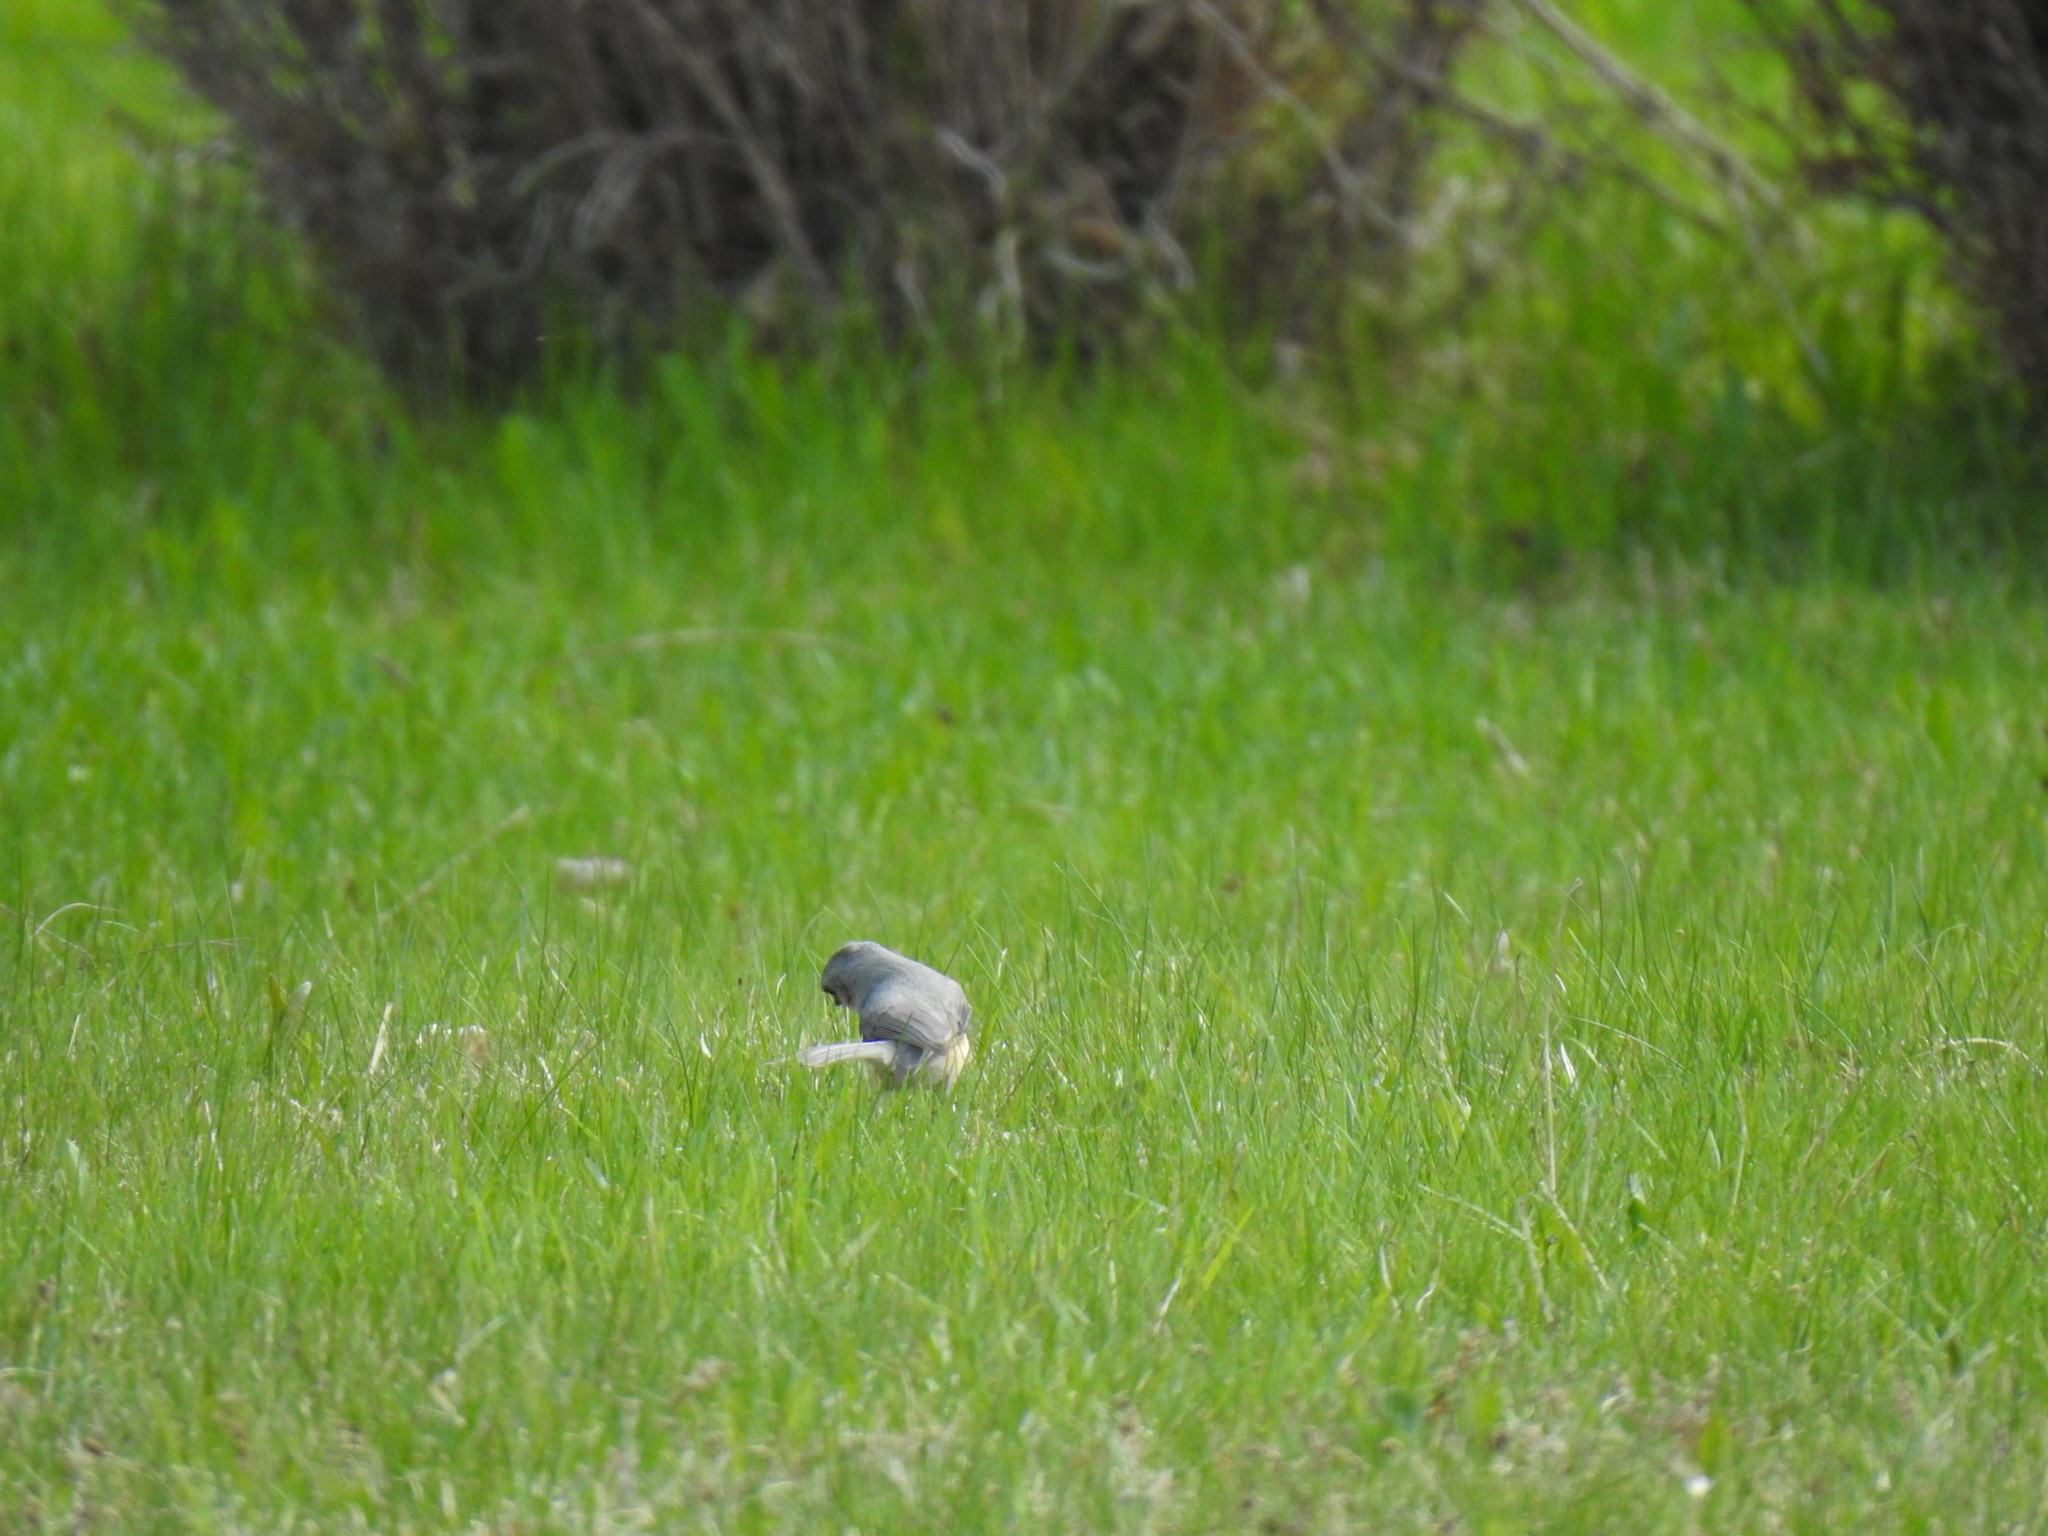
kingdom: Animalia
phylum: Chordata
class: Aves
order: Passeriformes
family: Paridae
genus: Baeolophus
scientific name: Baeolophus bicolor
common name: Tufted titmouse
